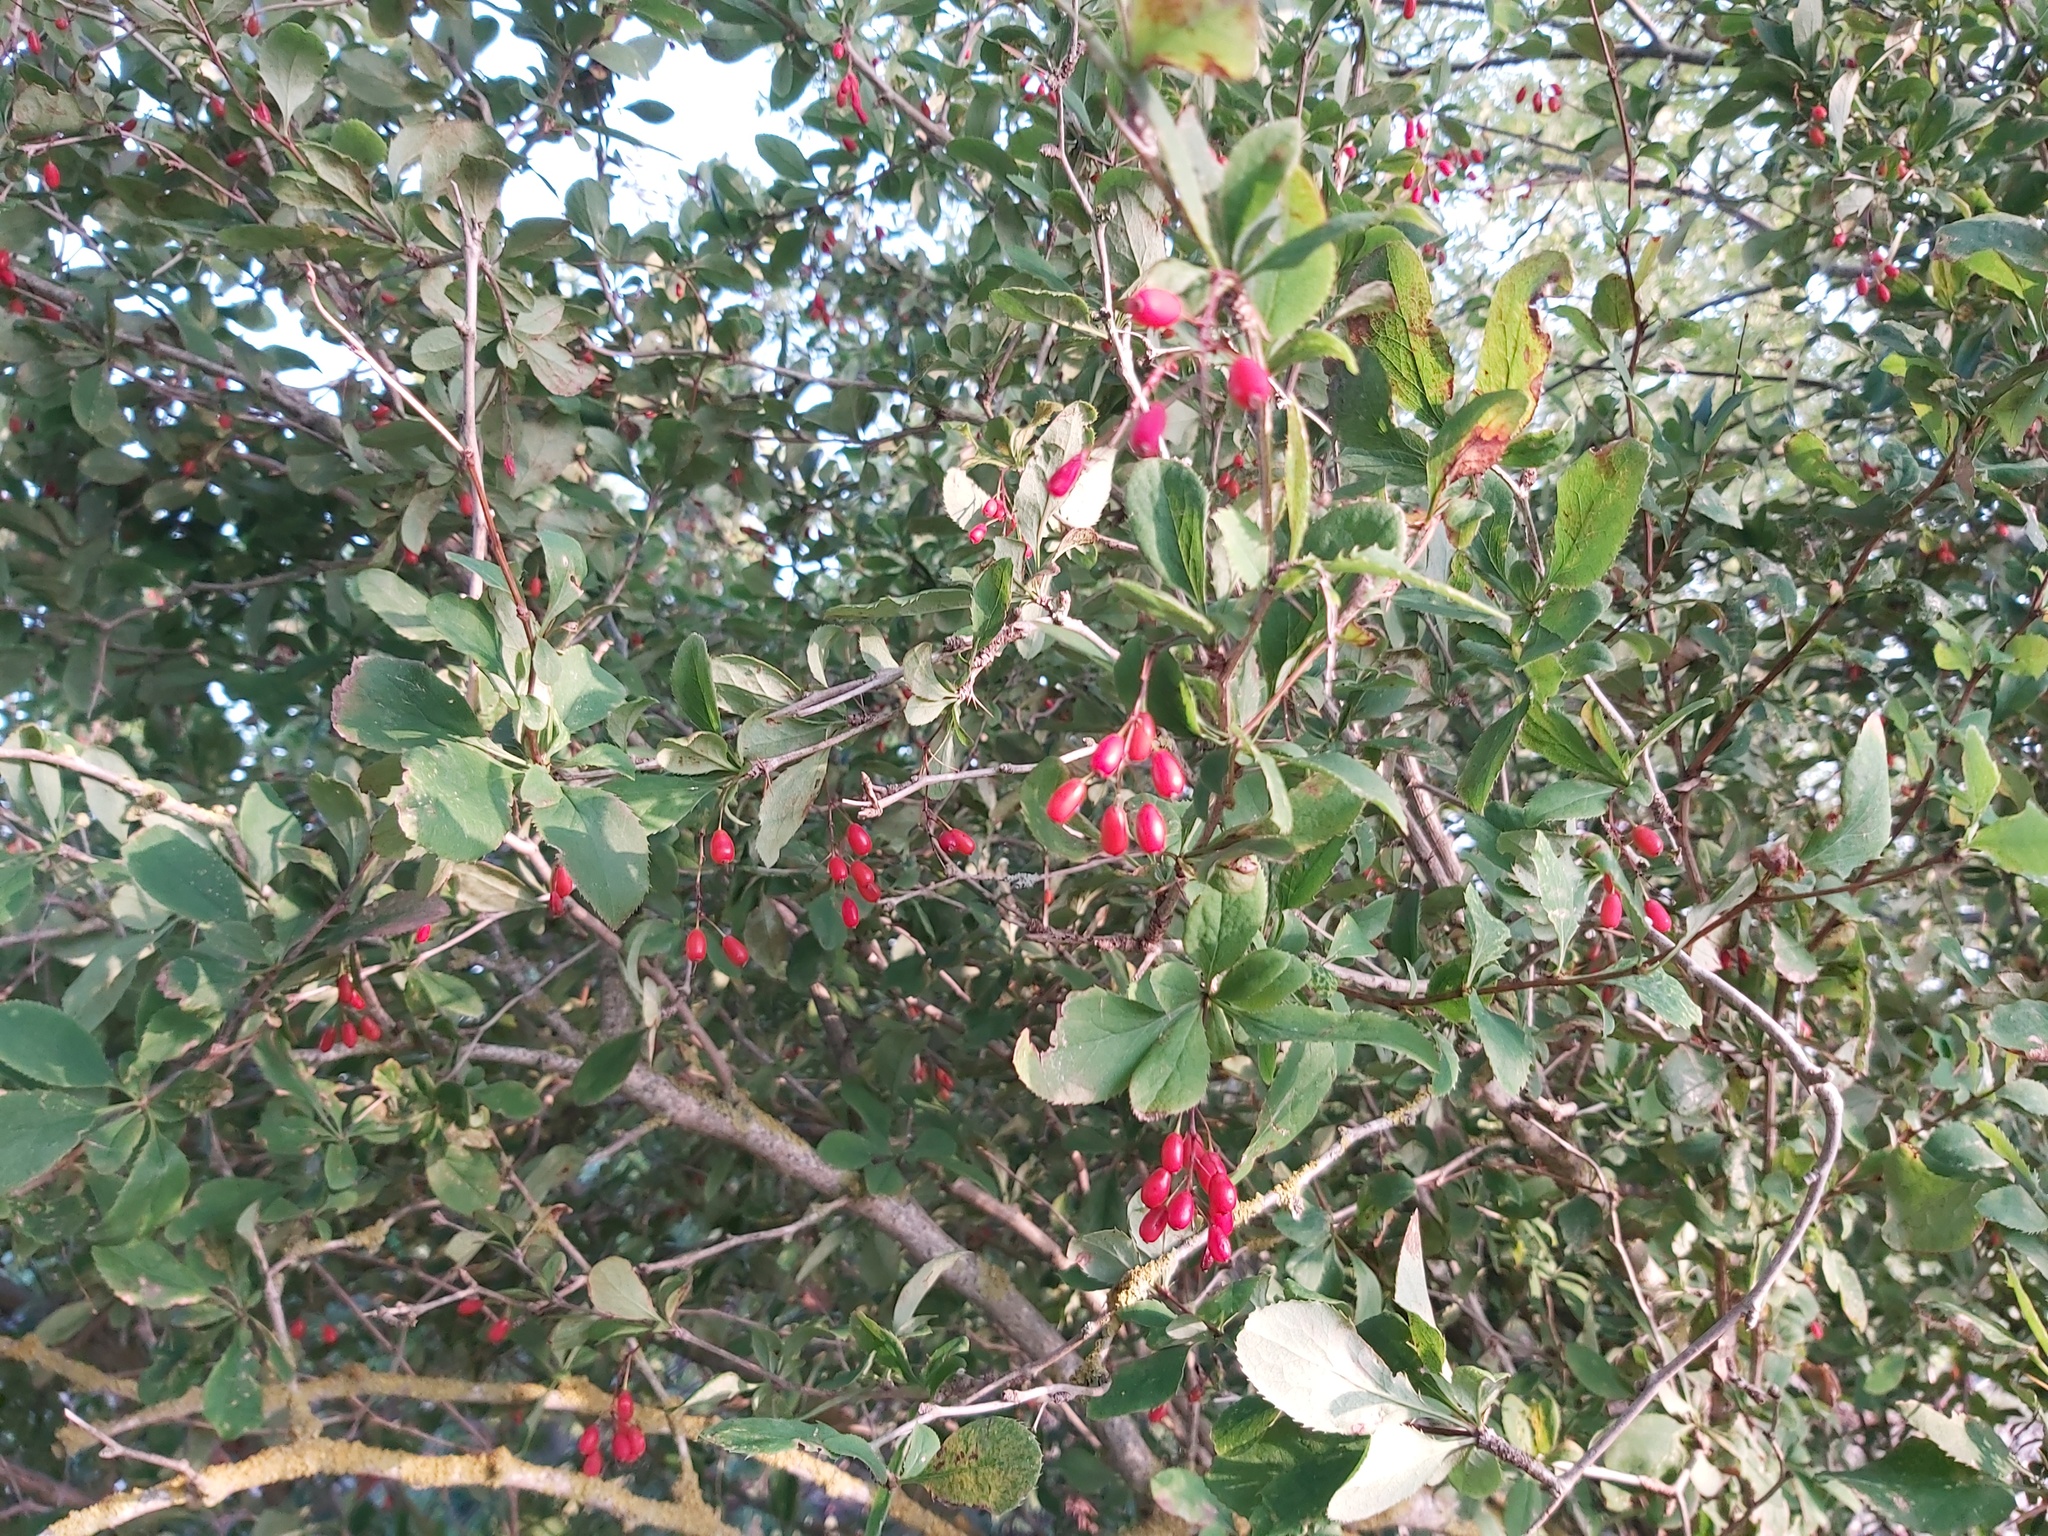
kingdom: Plantae
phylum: Tracheophyta
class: Magnoliopsida
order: Ranunculales
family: Berberidaceae
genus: Berberis
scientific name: Berberis vulgaris
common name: Barberry
